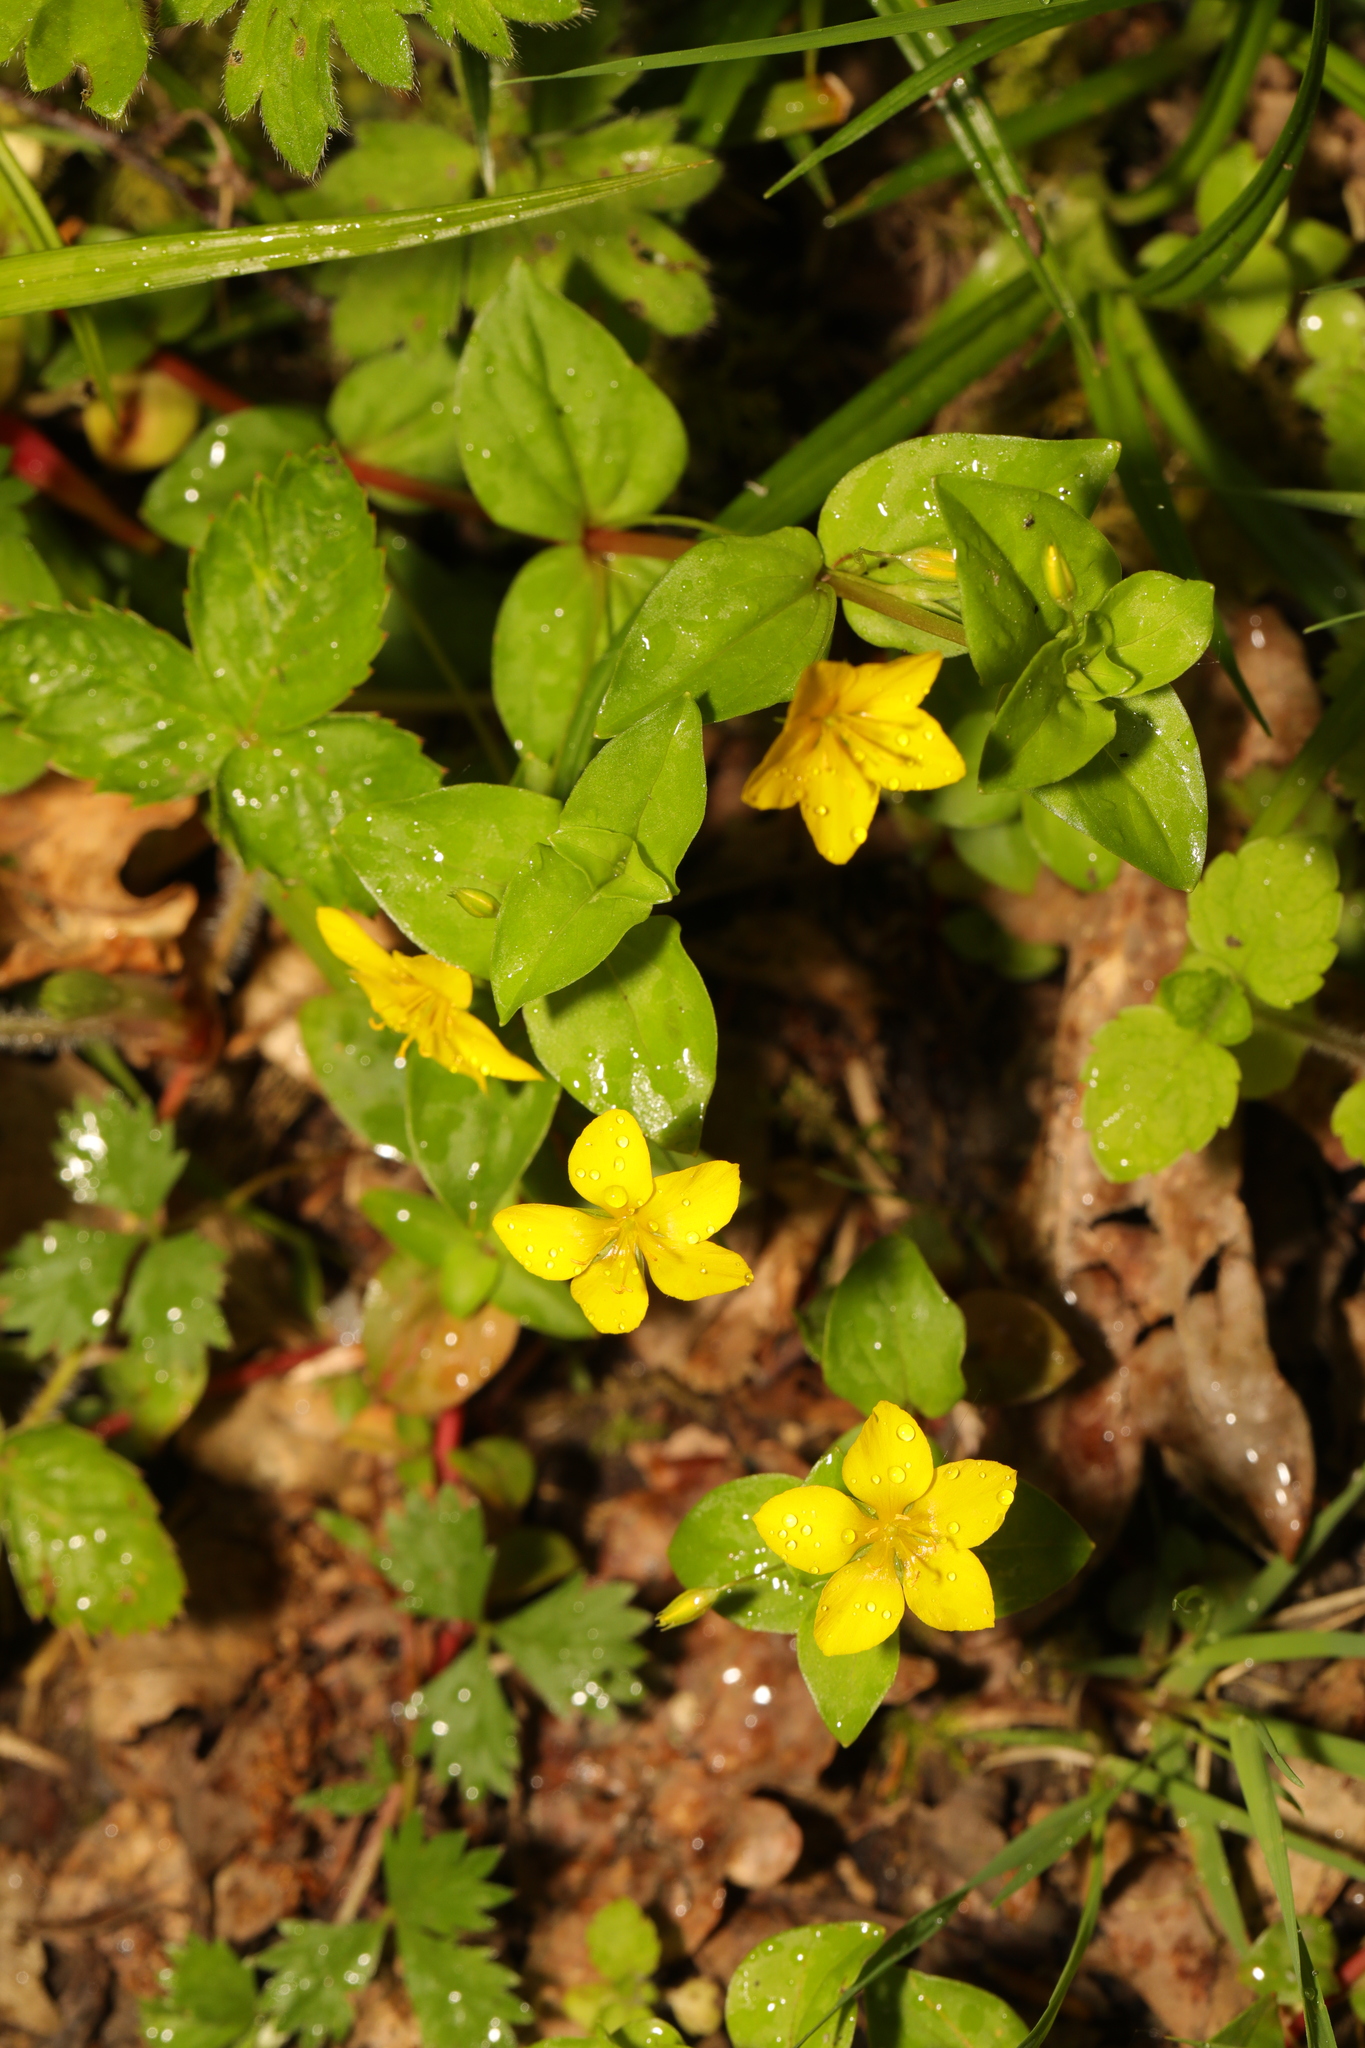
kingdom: Plantae
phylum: Tracheophyta
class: Magnoliopsida
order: Ericales
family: Primulaceae
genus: Lysimachia
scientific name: Lysimachia nemorum
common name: Yellow pimpernel
